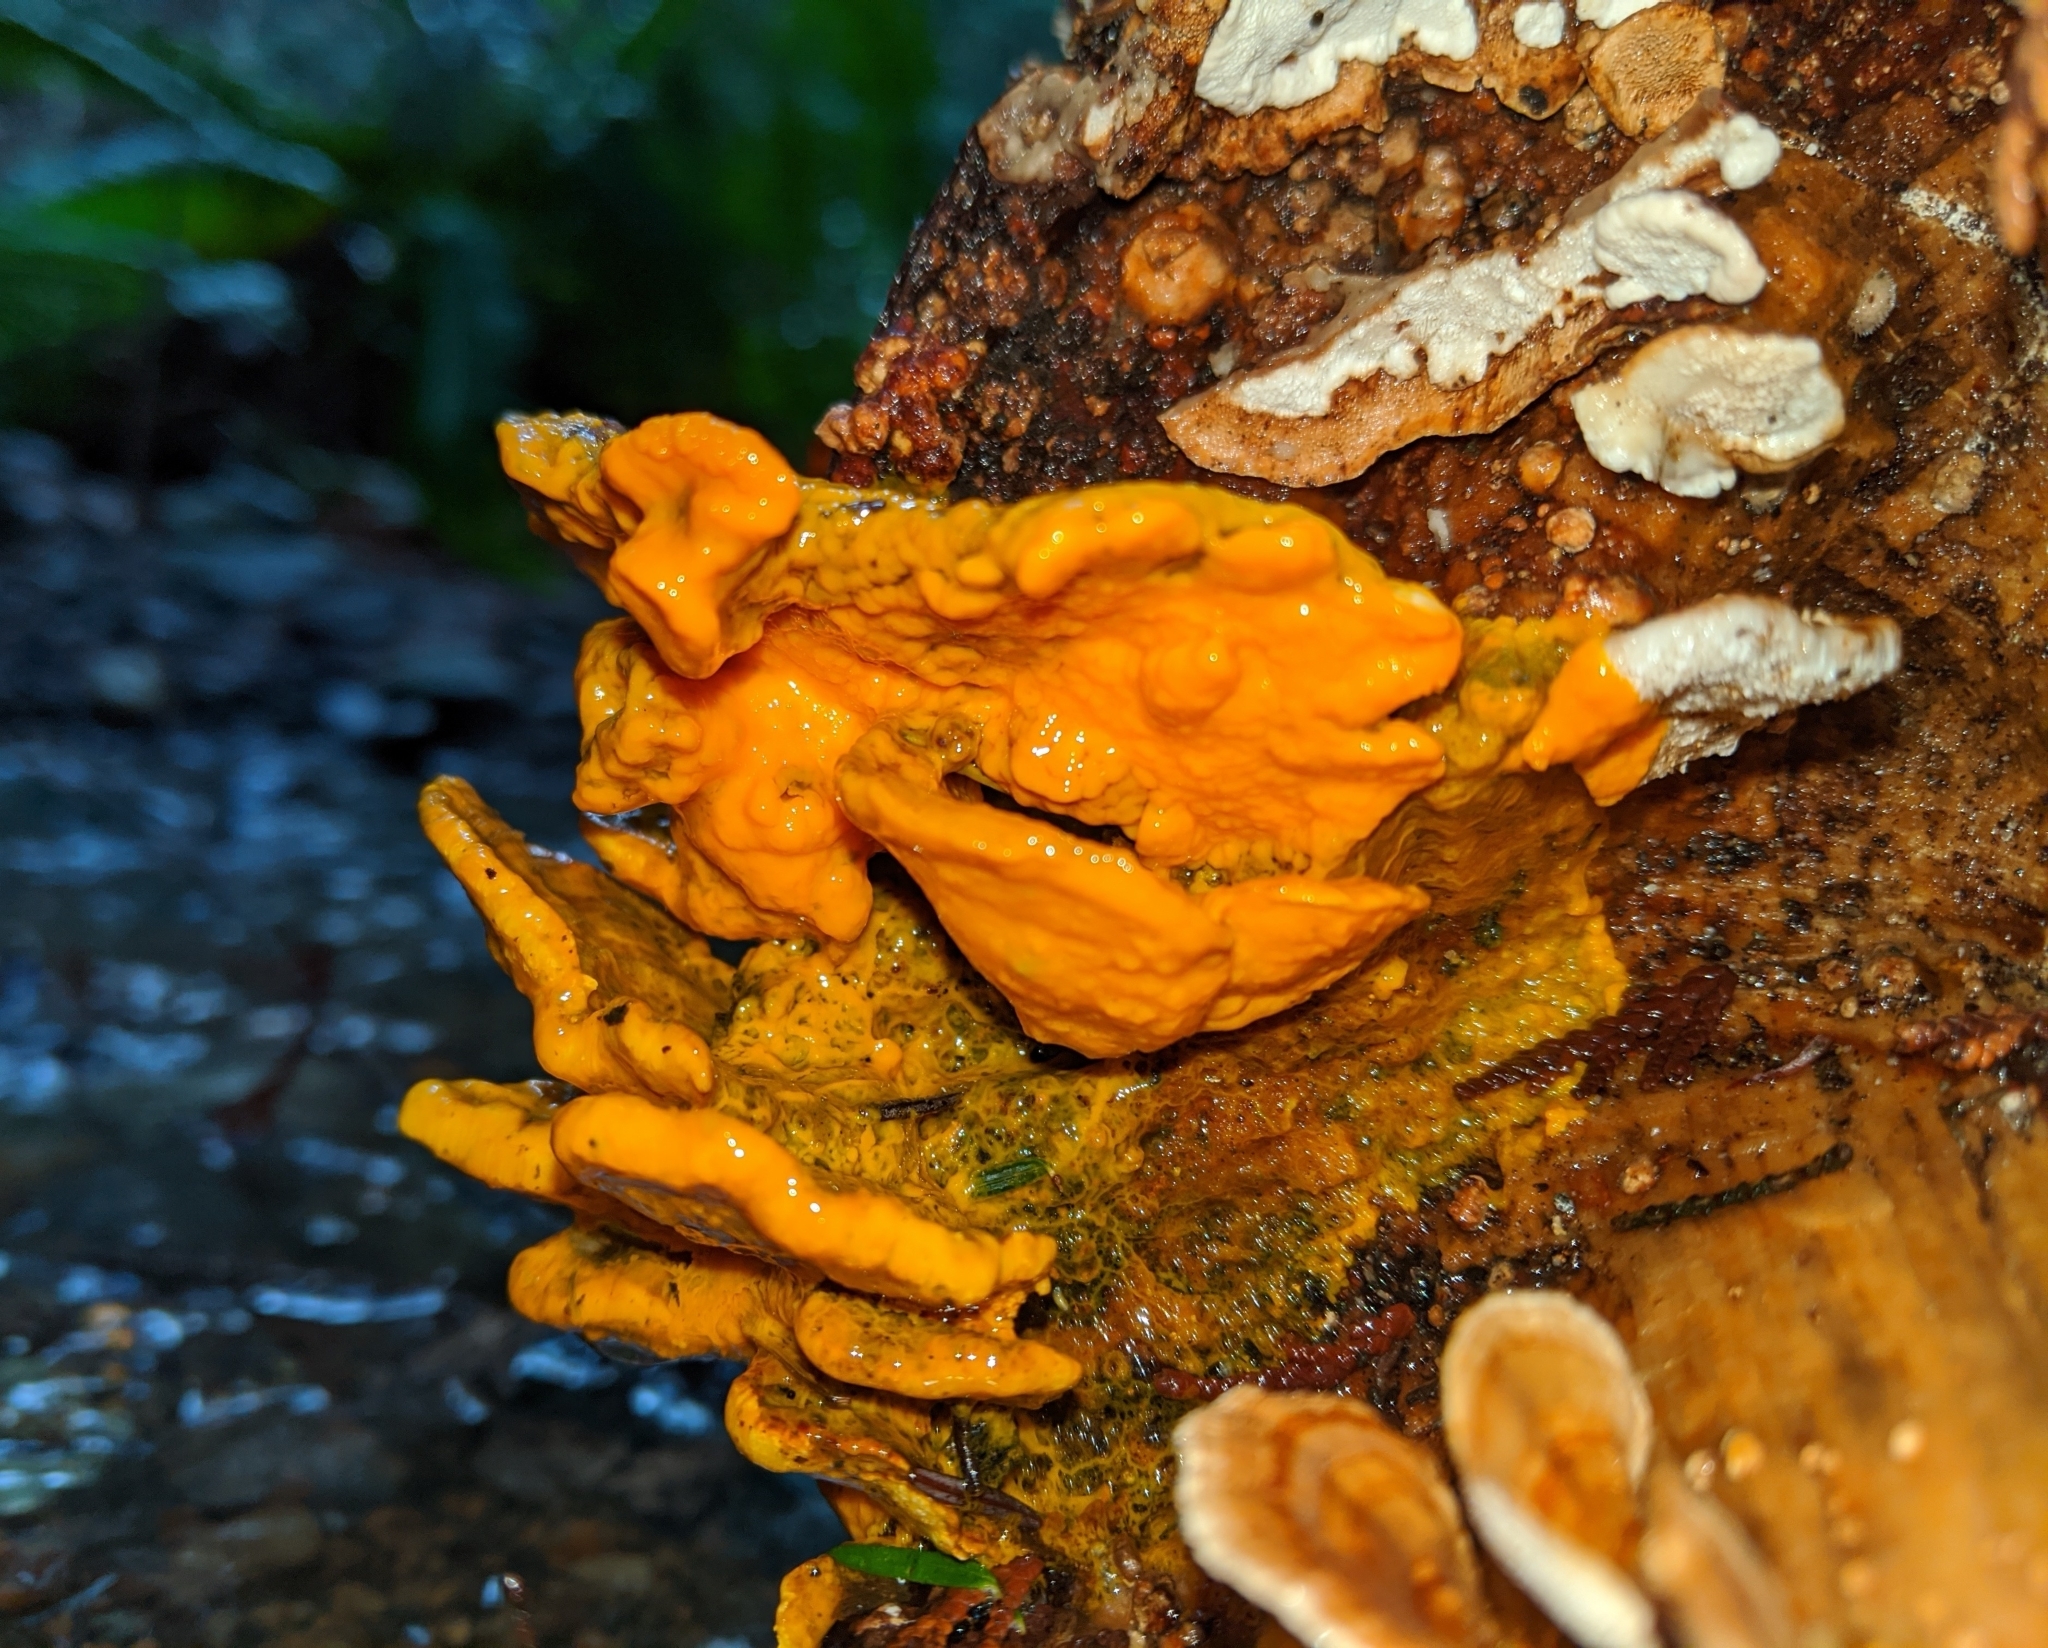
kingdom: Protozoa
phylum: Mycetozoa
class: Myxomycetes
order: Physarales
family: Physaraceae
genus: Badhamia
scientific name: Badhamia utricularis
